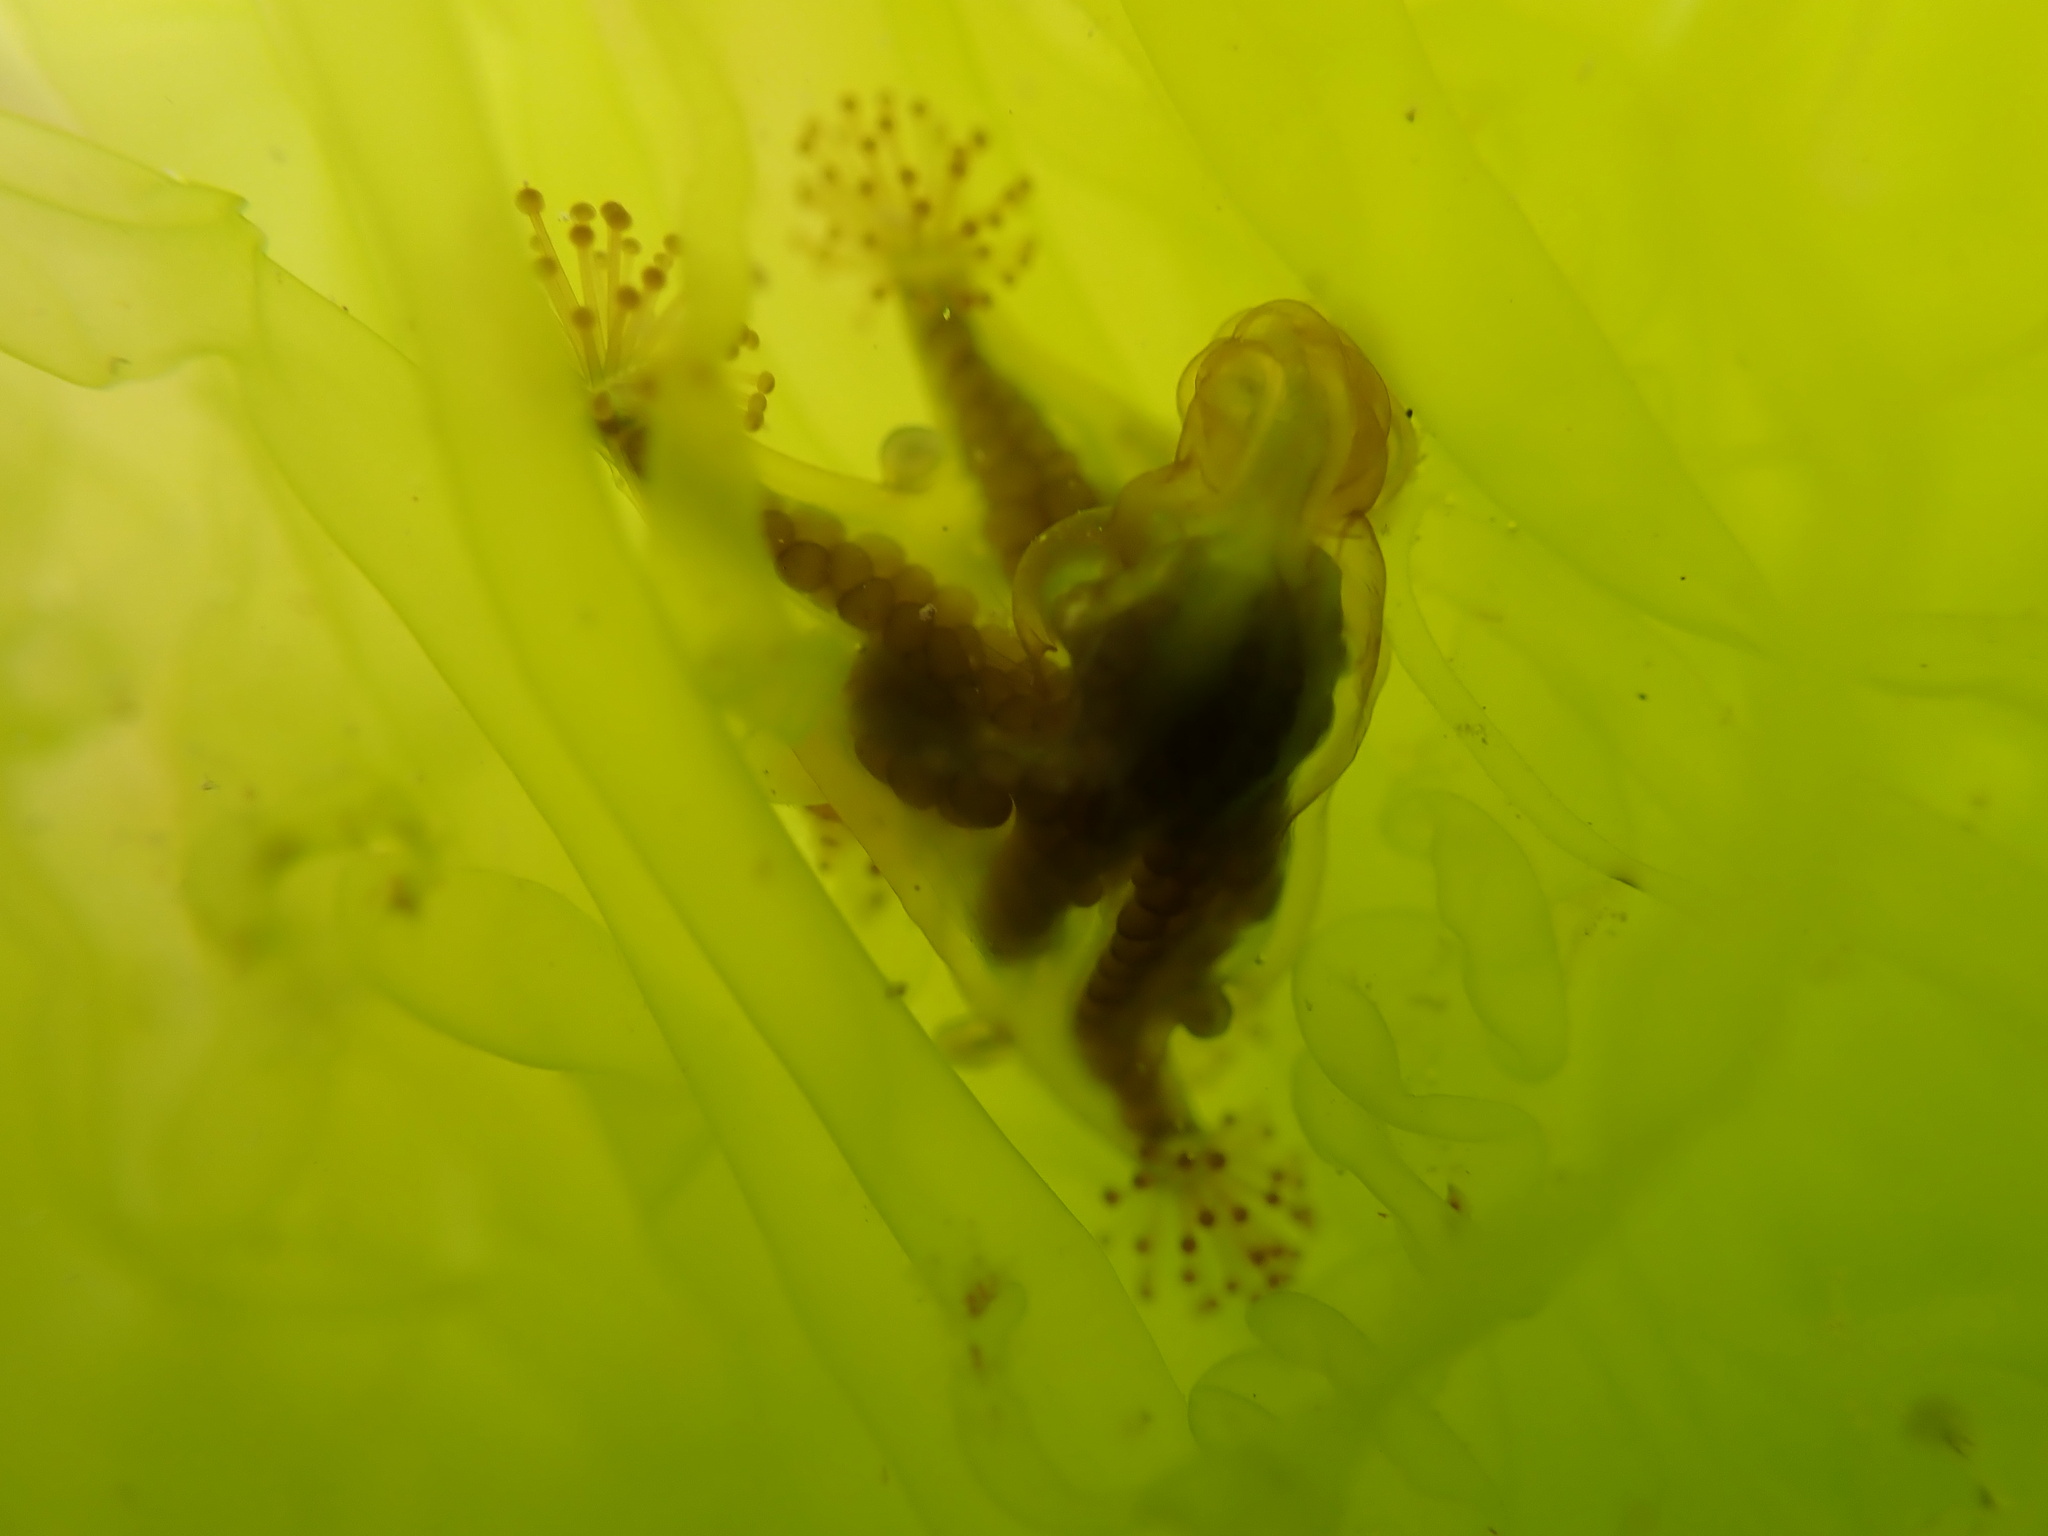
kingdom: Animalia
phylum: Cnidaria
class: Staurozoa
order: Stauromedusae
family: Haliclystidae
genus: Haliclystus
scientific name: Haliclystus octoradiatus
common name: Octaradiate stalked jellyfish
